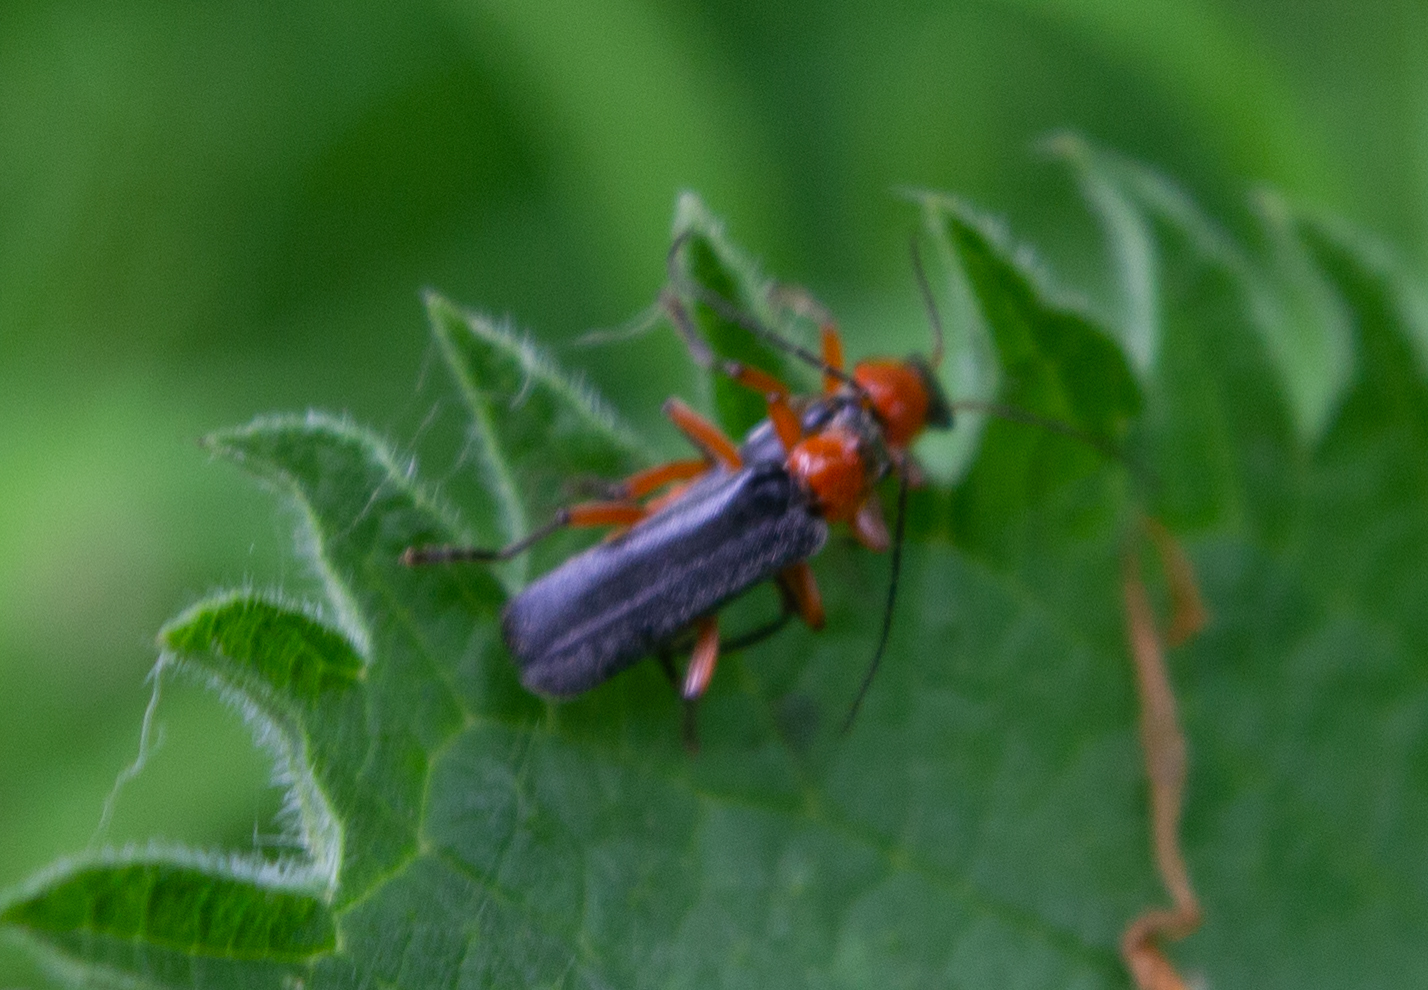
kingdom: Animalia
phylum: Arthropoda
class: Insecta
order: Coleoptera
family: Cantharidae
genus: Cantharis
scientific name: Cantharis pellucida
